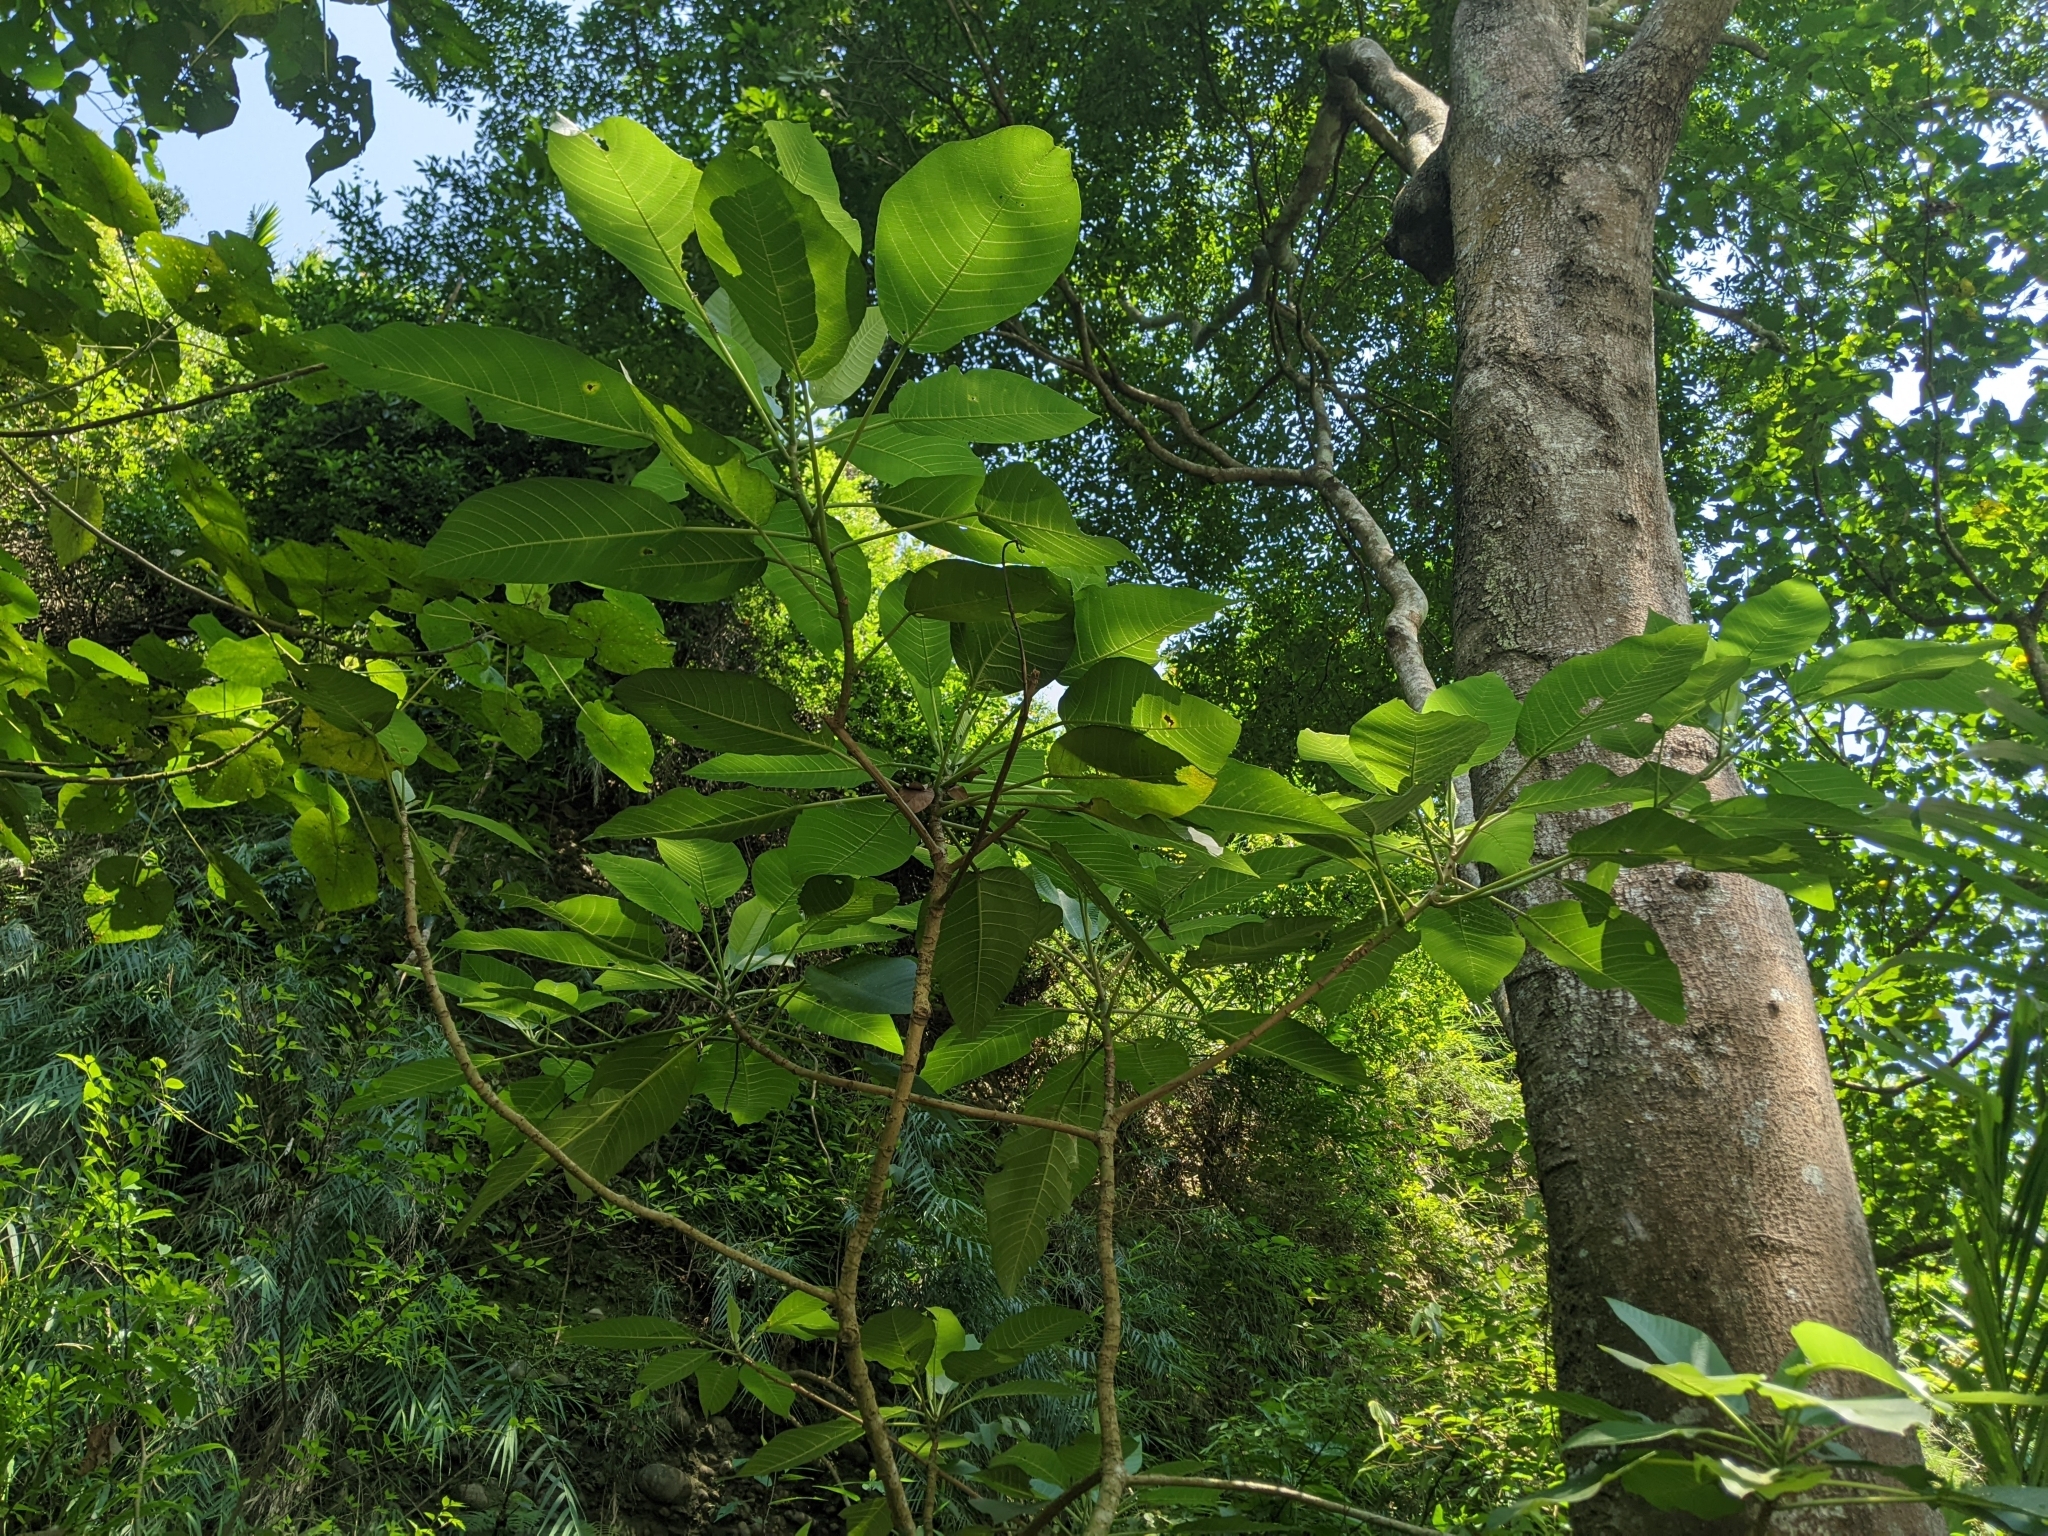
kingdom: Plantae
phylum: Tracheophyta
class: Magnoliopsida
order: Rosales
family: Urticaceae
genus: Dendrocnide
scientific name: Dendrocnide meyeniana
